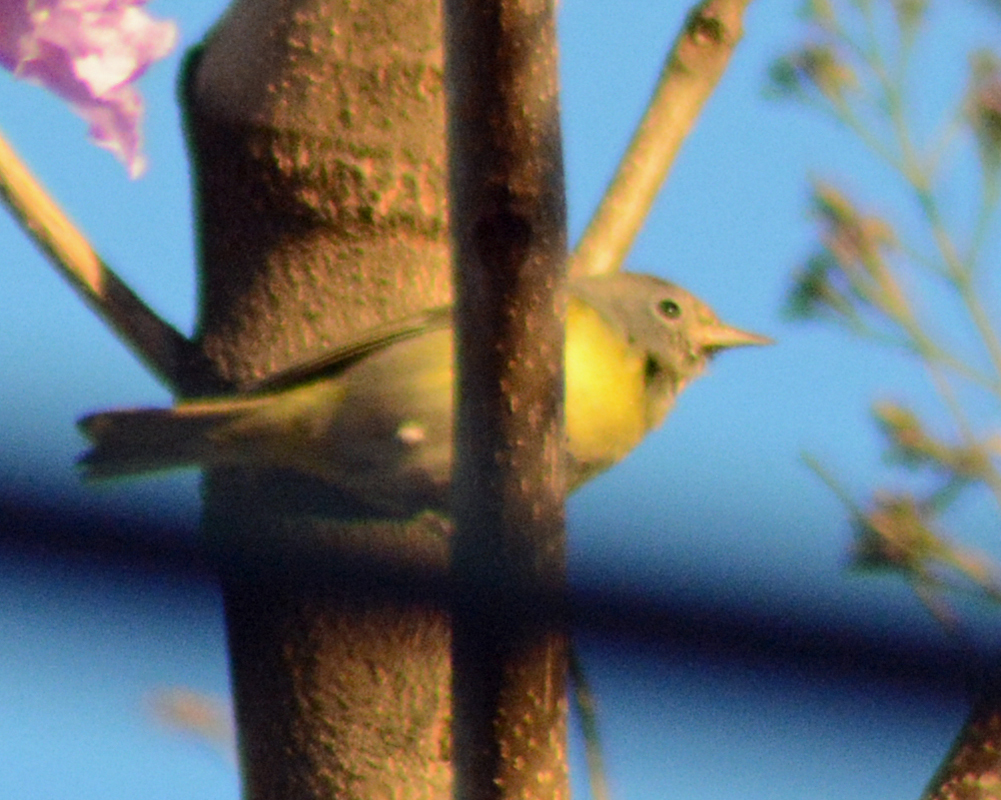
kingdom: Animalia
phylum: Chordata
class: Aves
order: Passeriformes
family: Parulidae
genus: Leiothlypis
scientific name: Leiothlypis ruficapilla
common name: Nashville warbler
